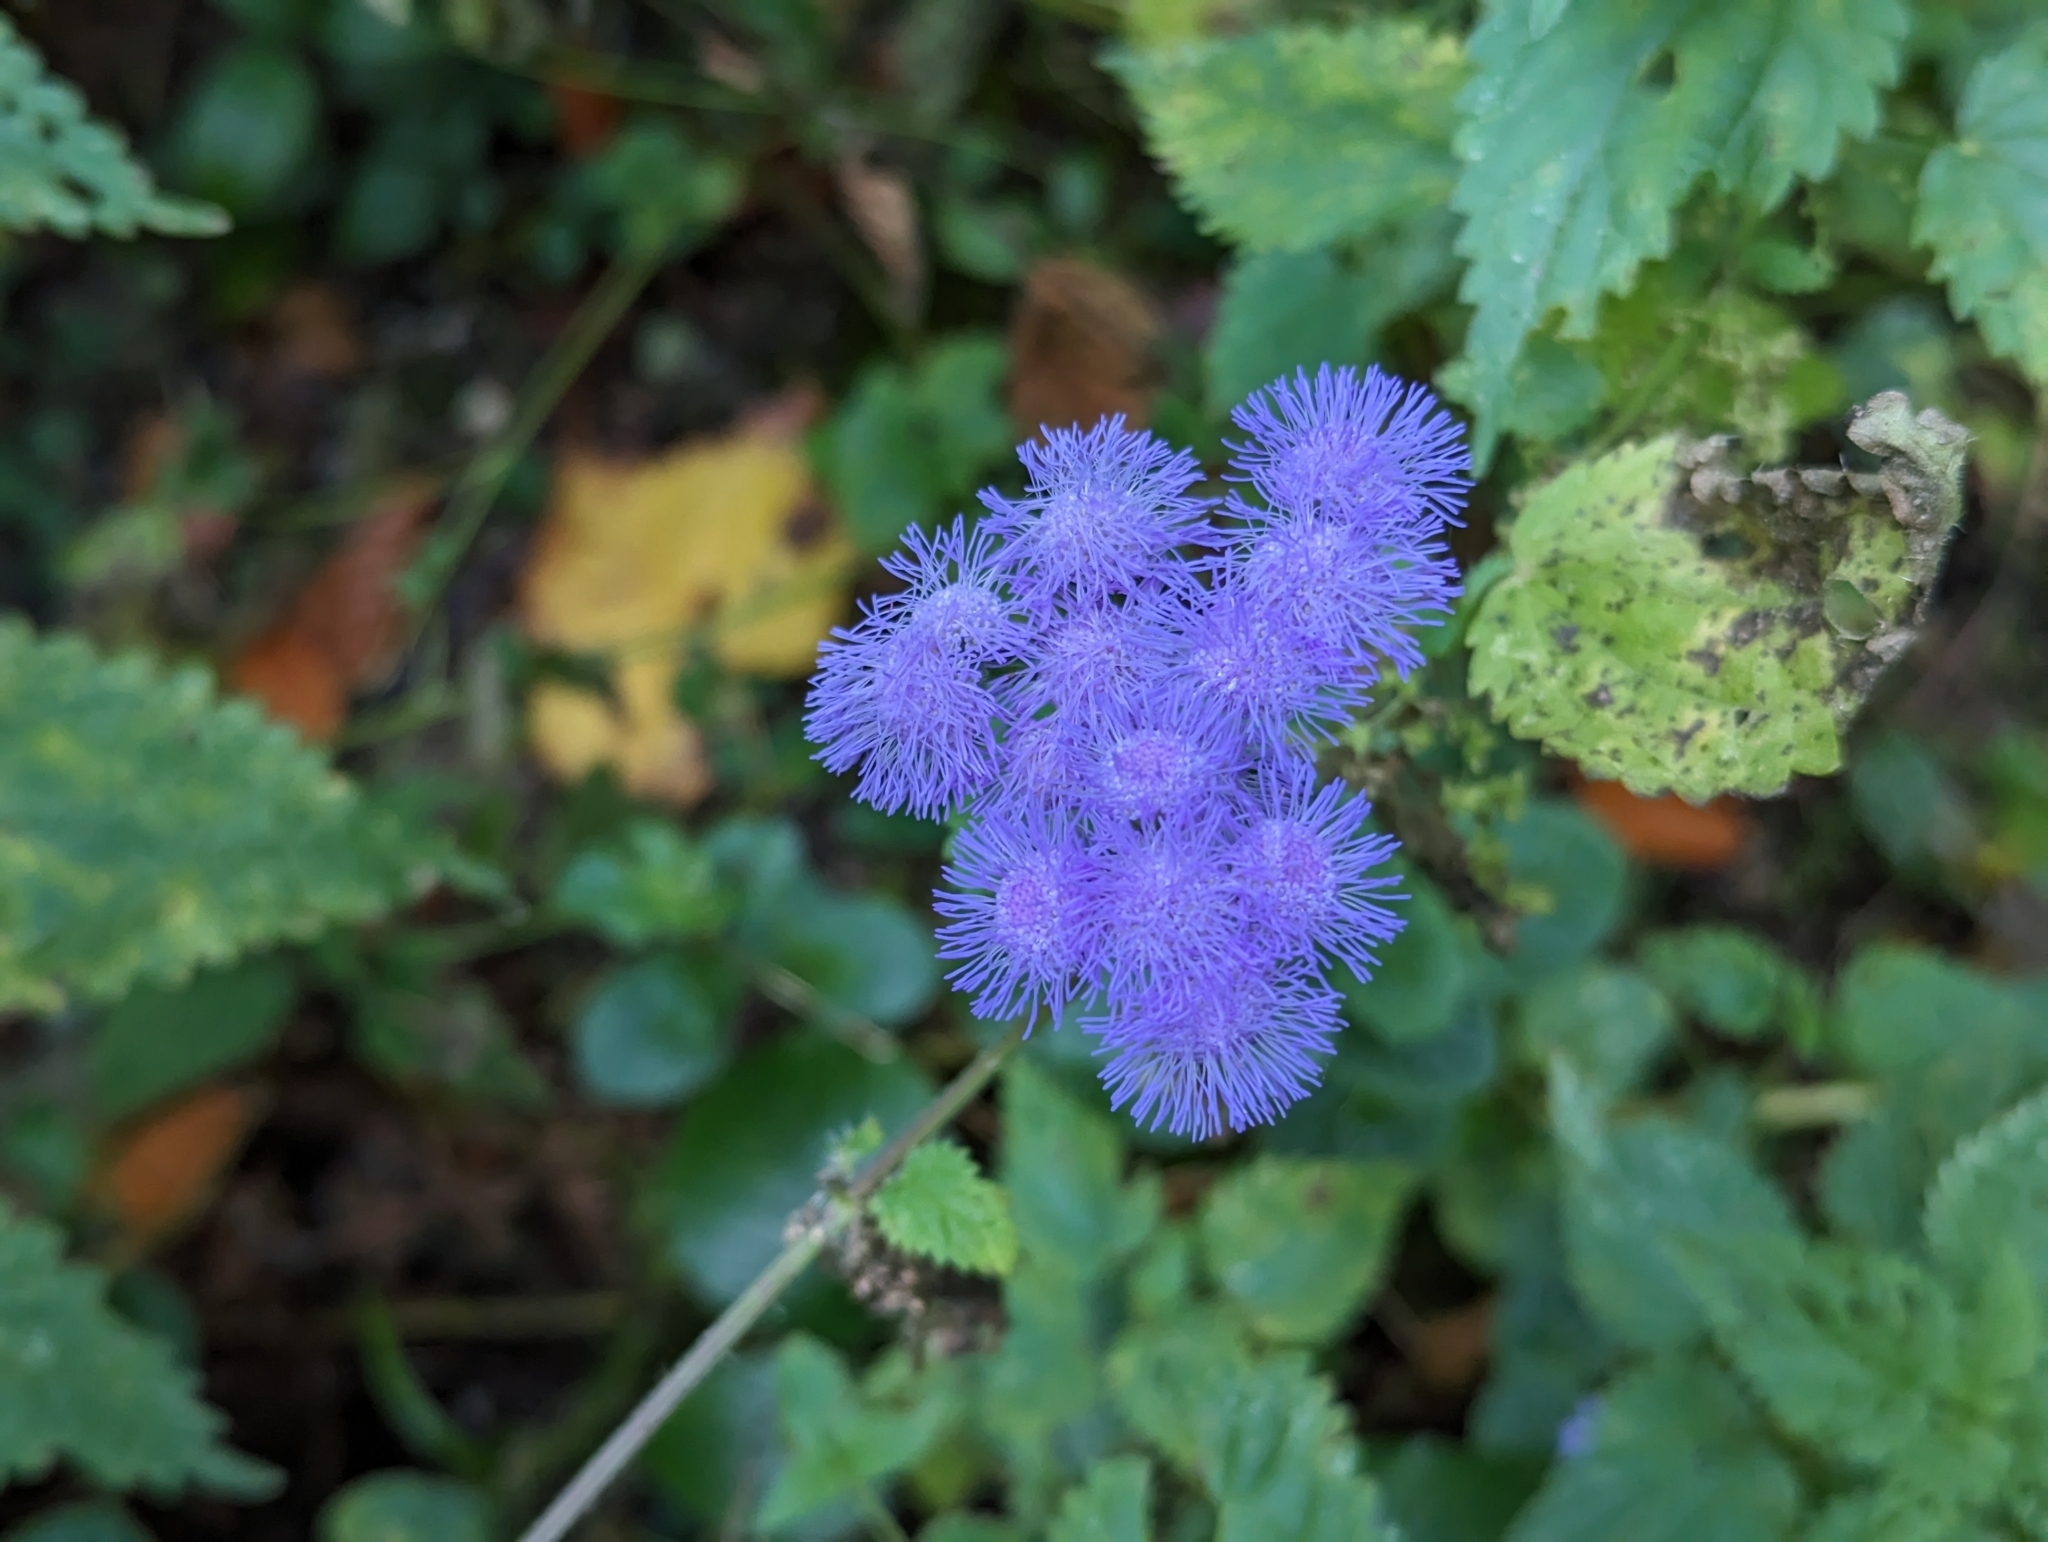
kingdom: Plantae
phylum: Tracheophyta
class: Magnoliopsida
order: Asterales
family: Asteraceae
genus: Ageratum
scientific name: Ageratum houstonianum
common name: Bluemink
